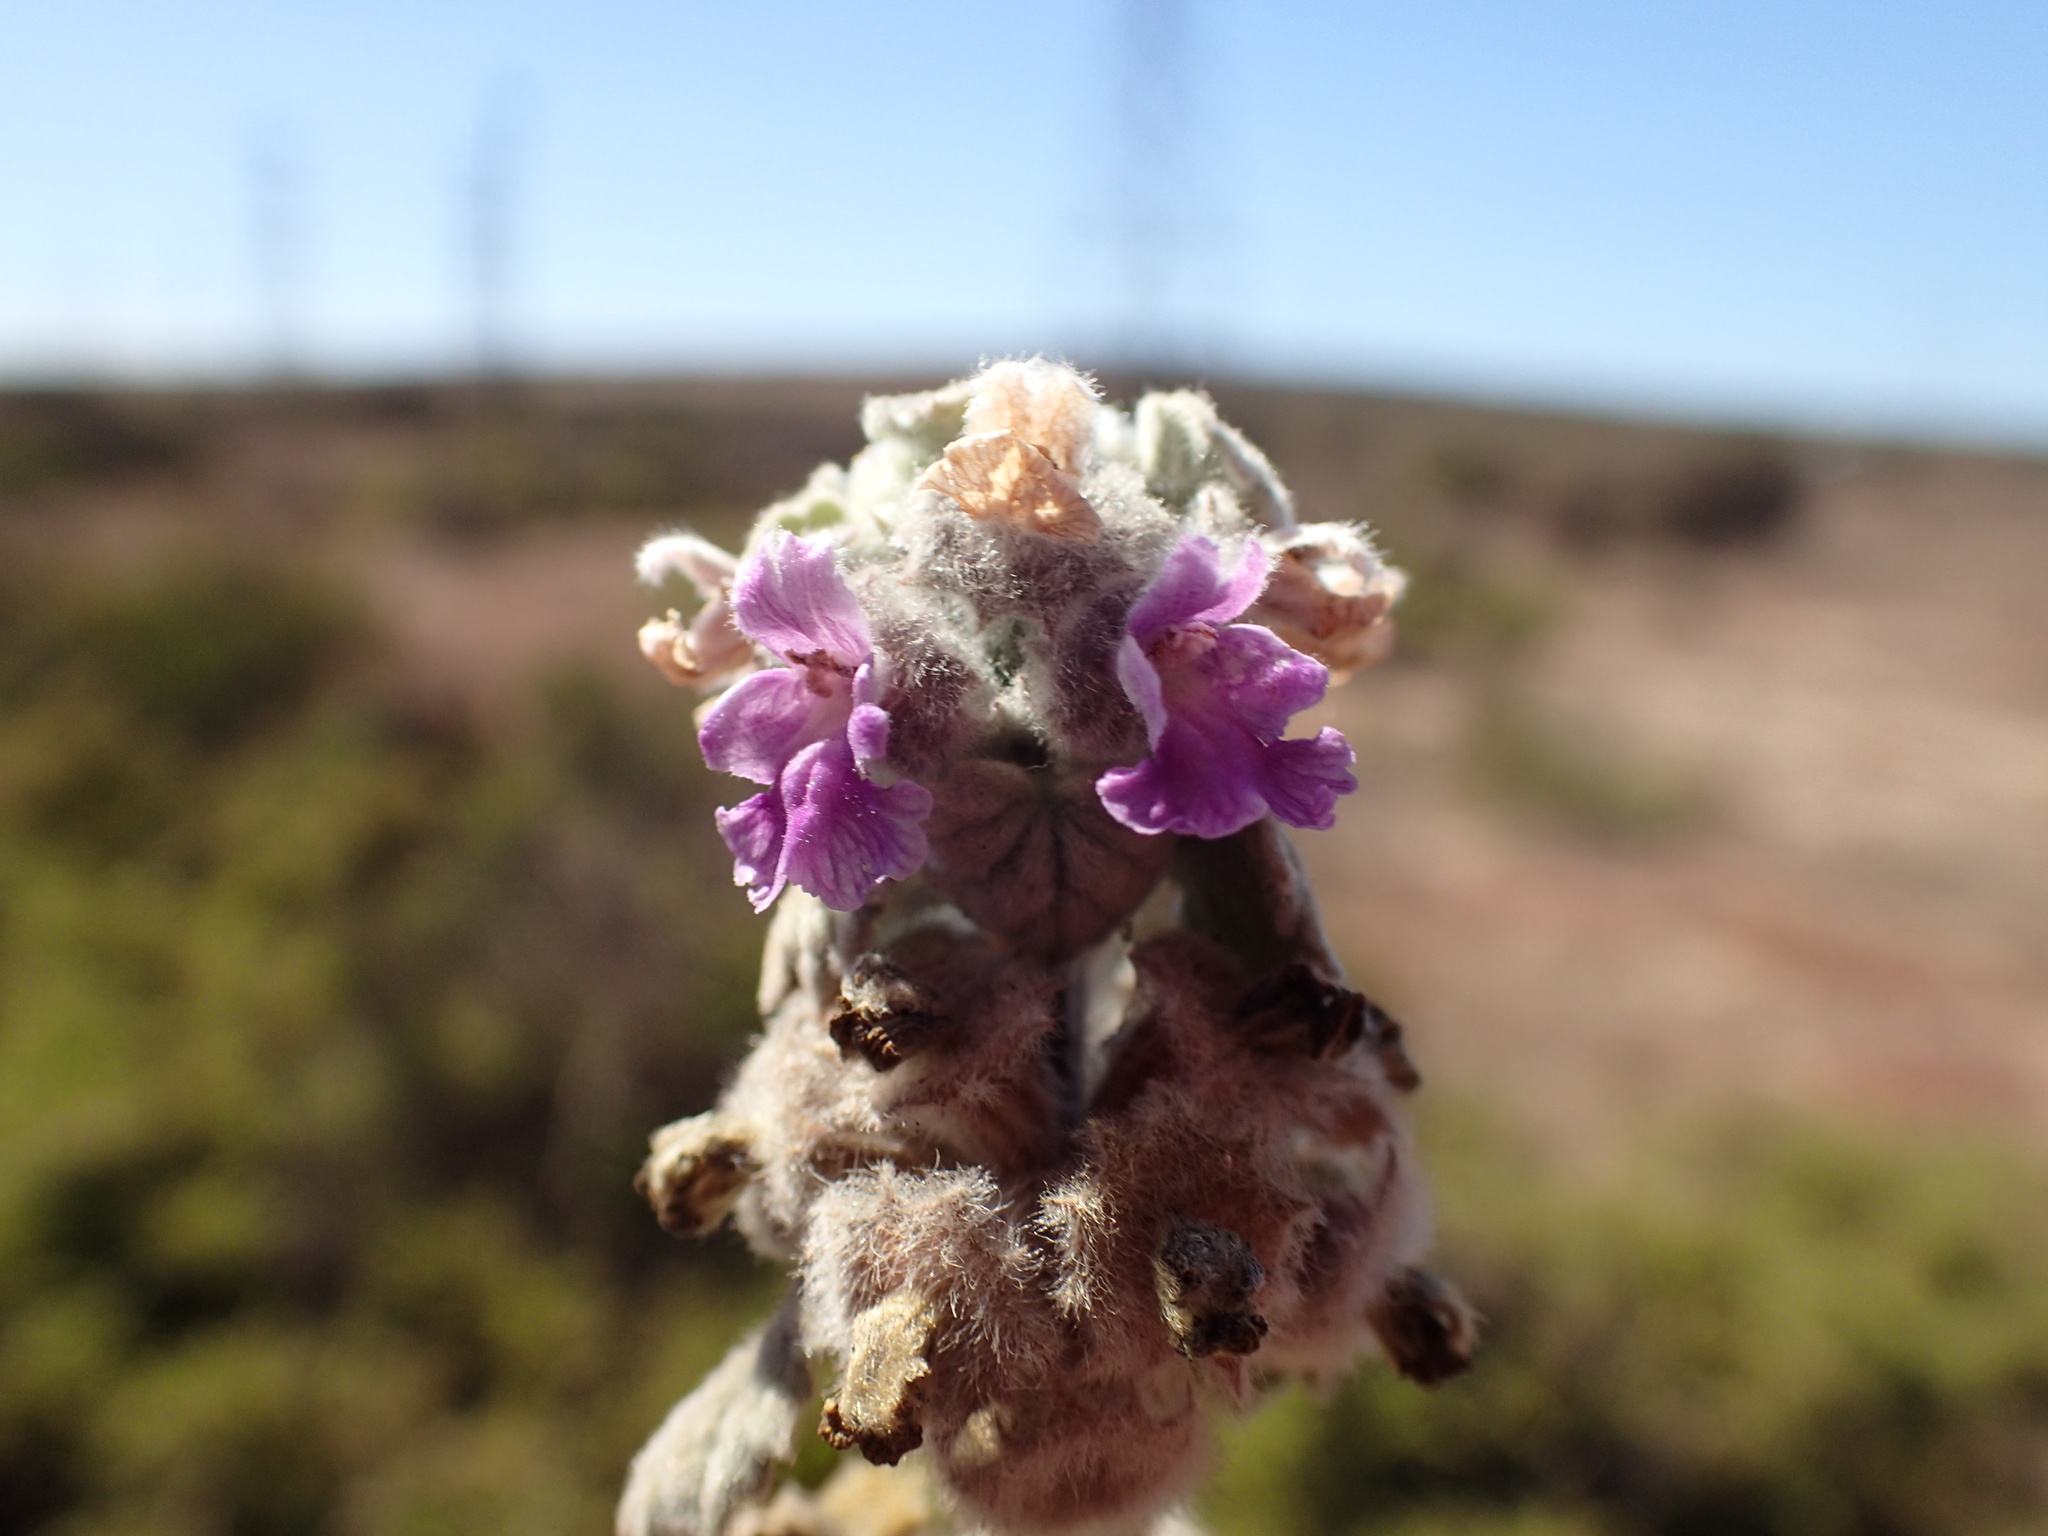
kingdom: Plantae
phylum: Tracheophyta
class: Magnoliopsida
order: Lamiales
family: Lamiaceae
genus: Pseudodictamnus
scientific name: Pseudodictamnus africanus
